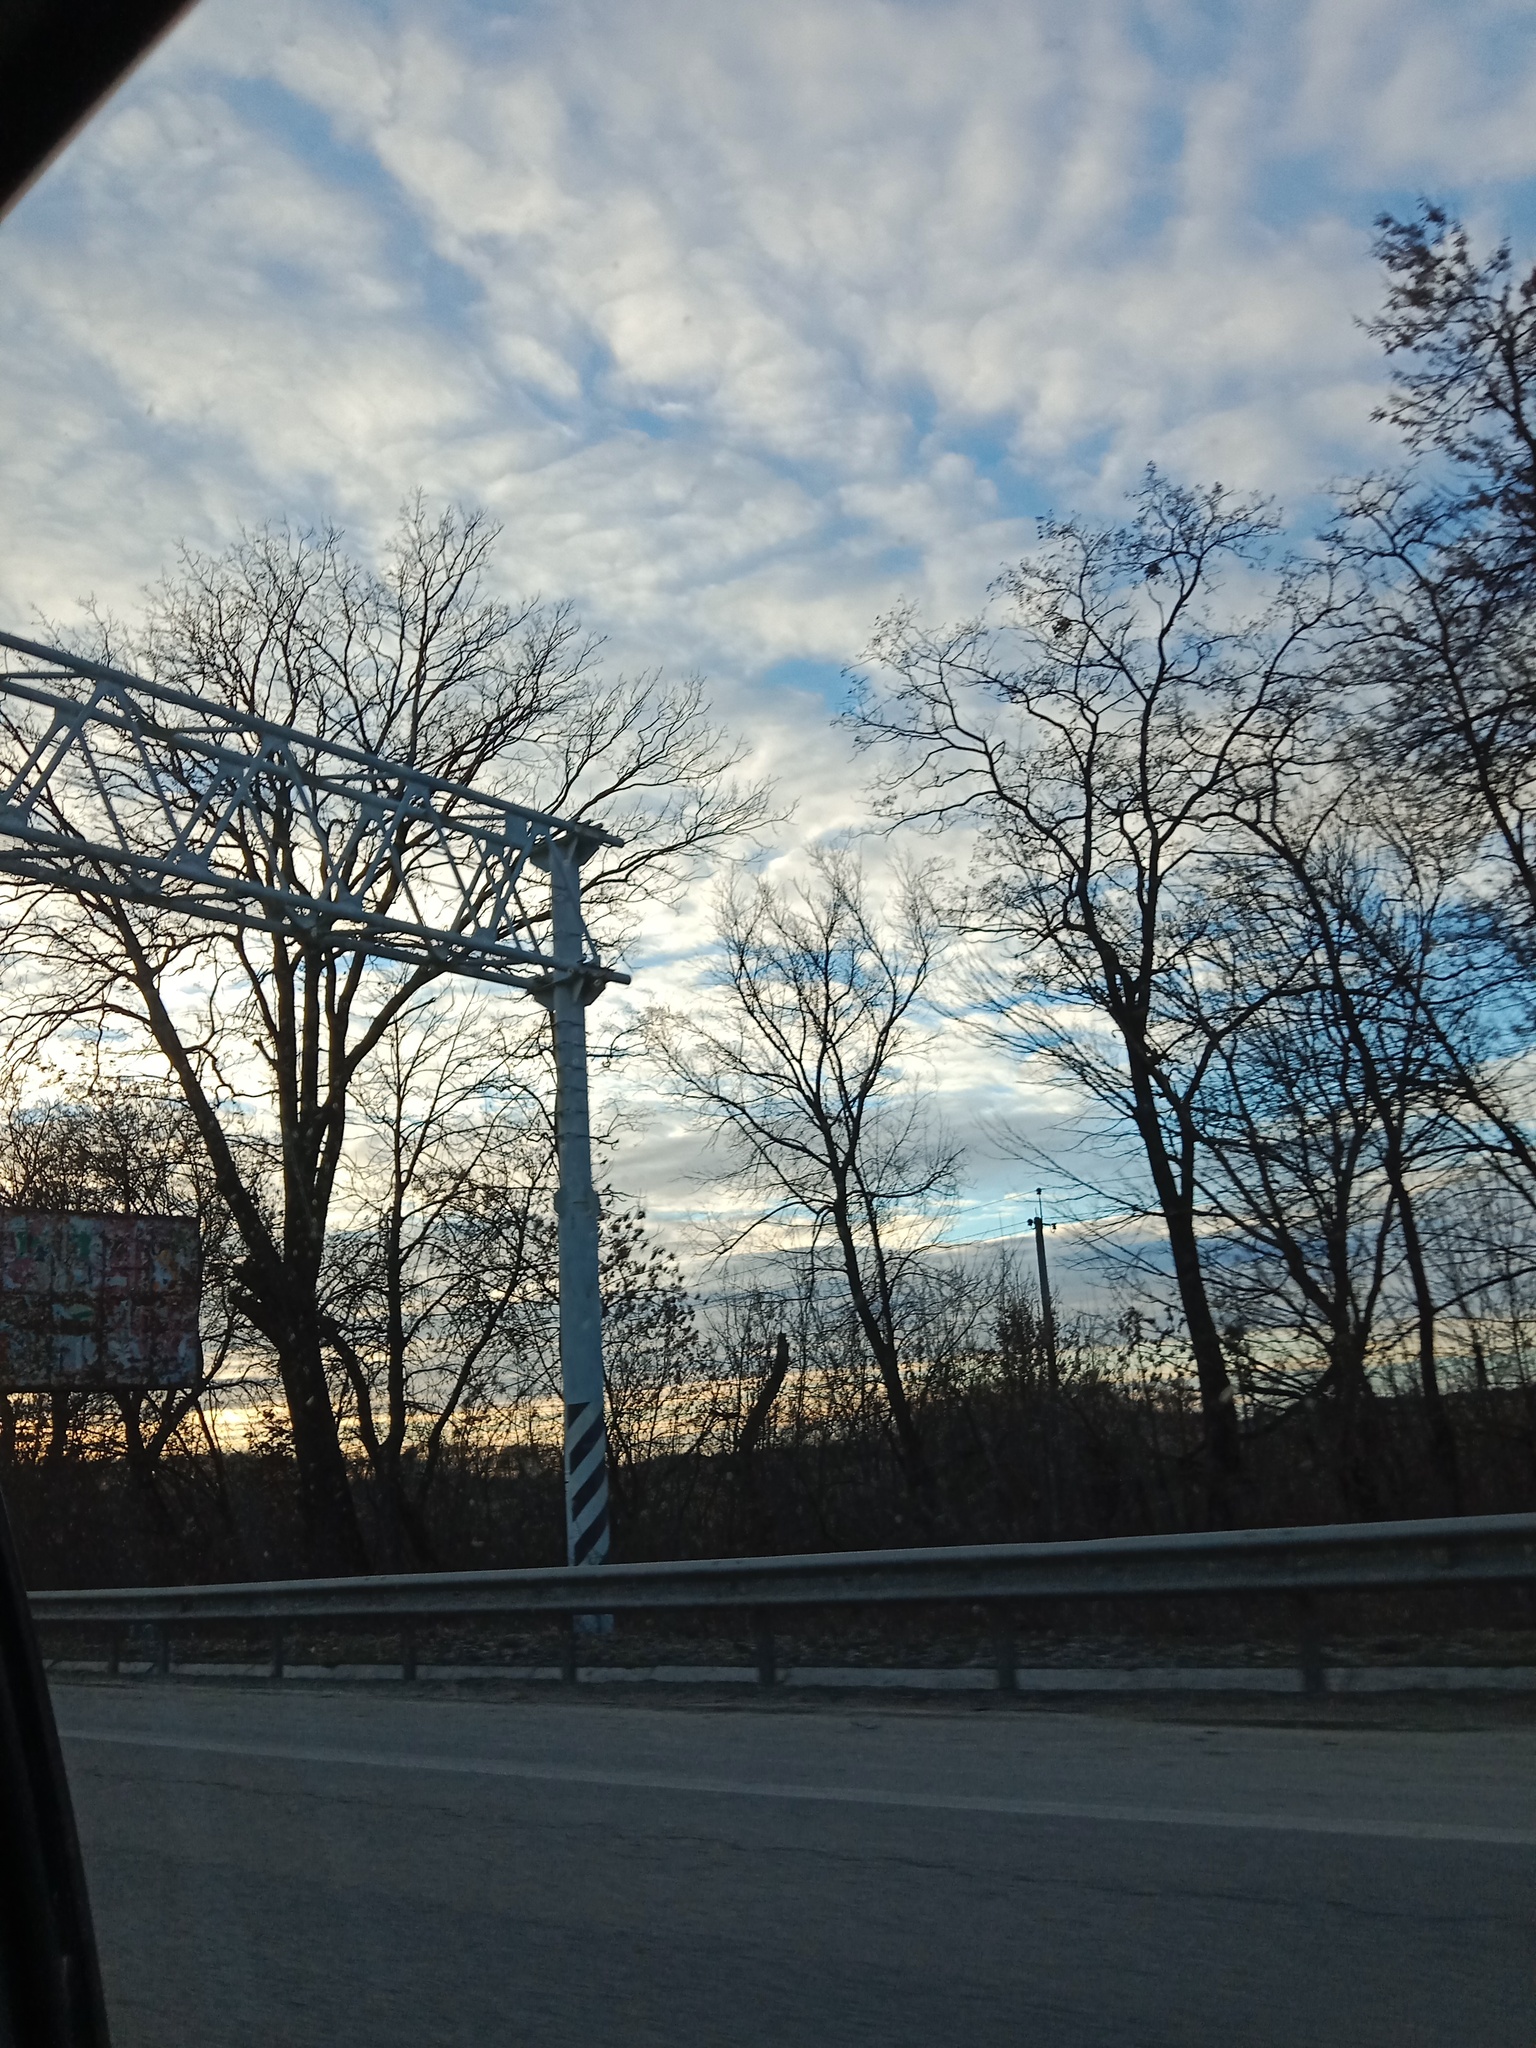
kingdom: Plantae
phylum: Tracheophyta
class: Magnoliopsida
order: Santalales
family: Viscaceae
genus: Viscum
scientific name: Viscum album
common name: Mistletoe
